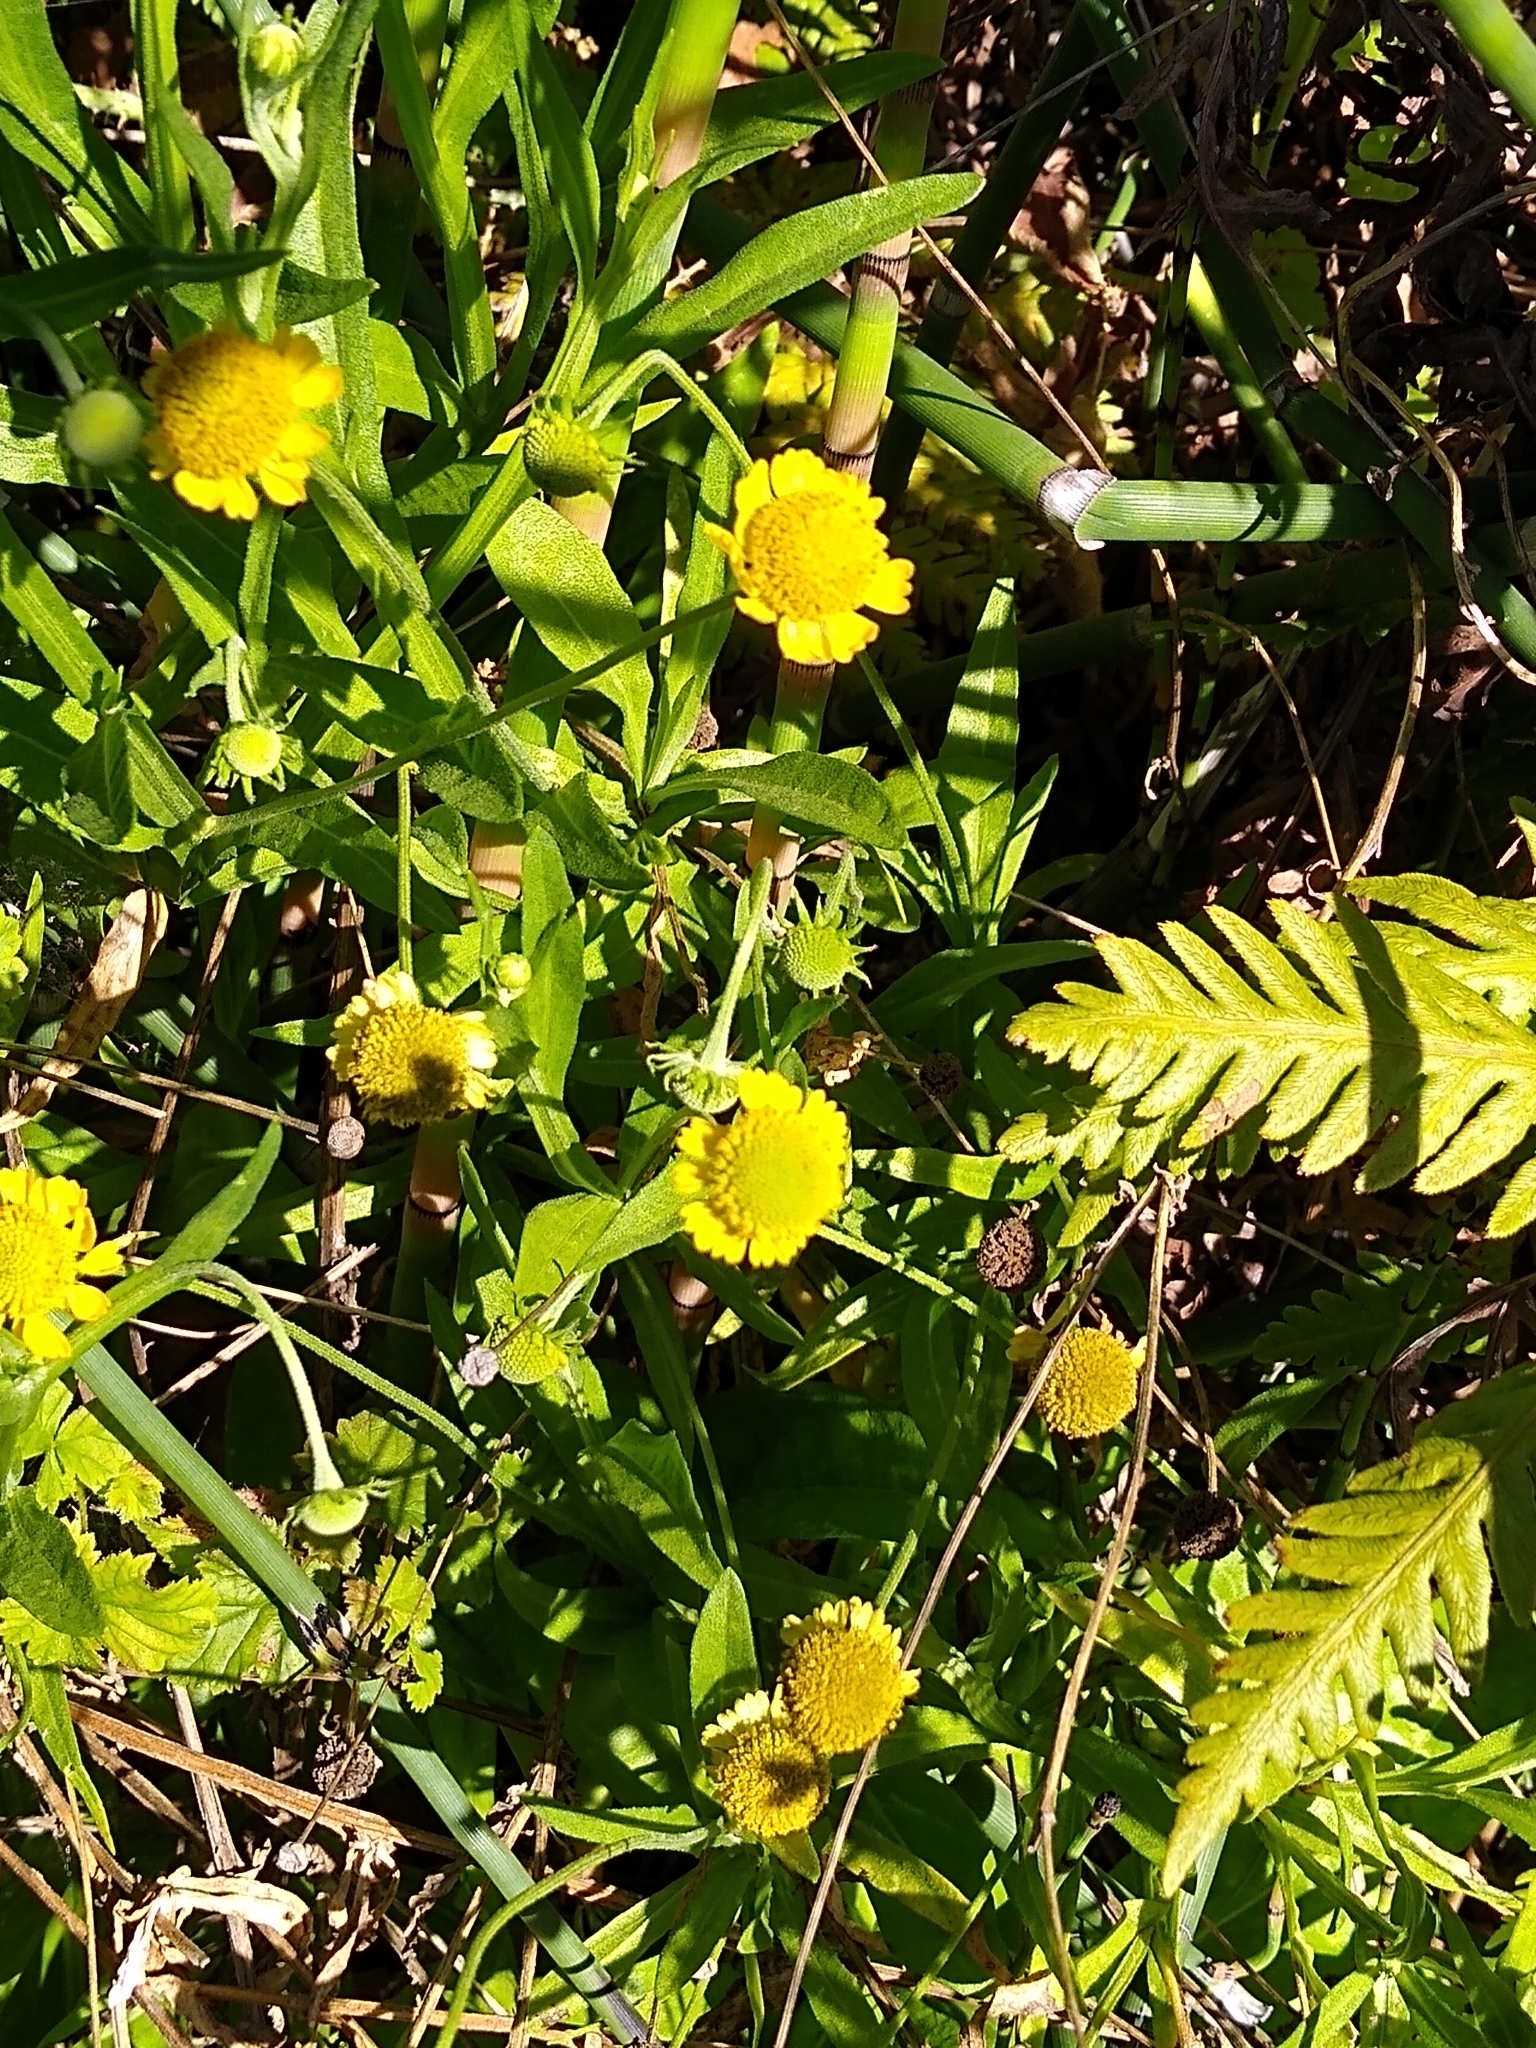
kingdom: Plantae
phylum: Tracheophyta
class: Magnoliopsida
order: Asterales
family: Asteraceae
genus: Helenium
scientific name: Helenium puberulum
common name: Sneezewort
